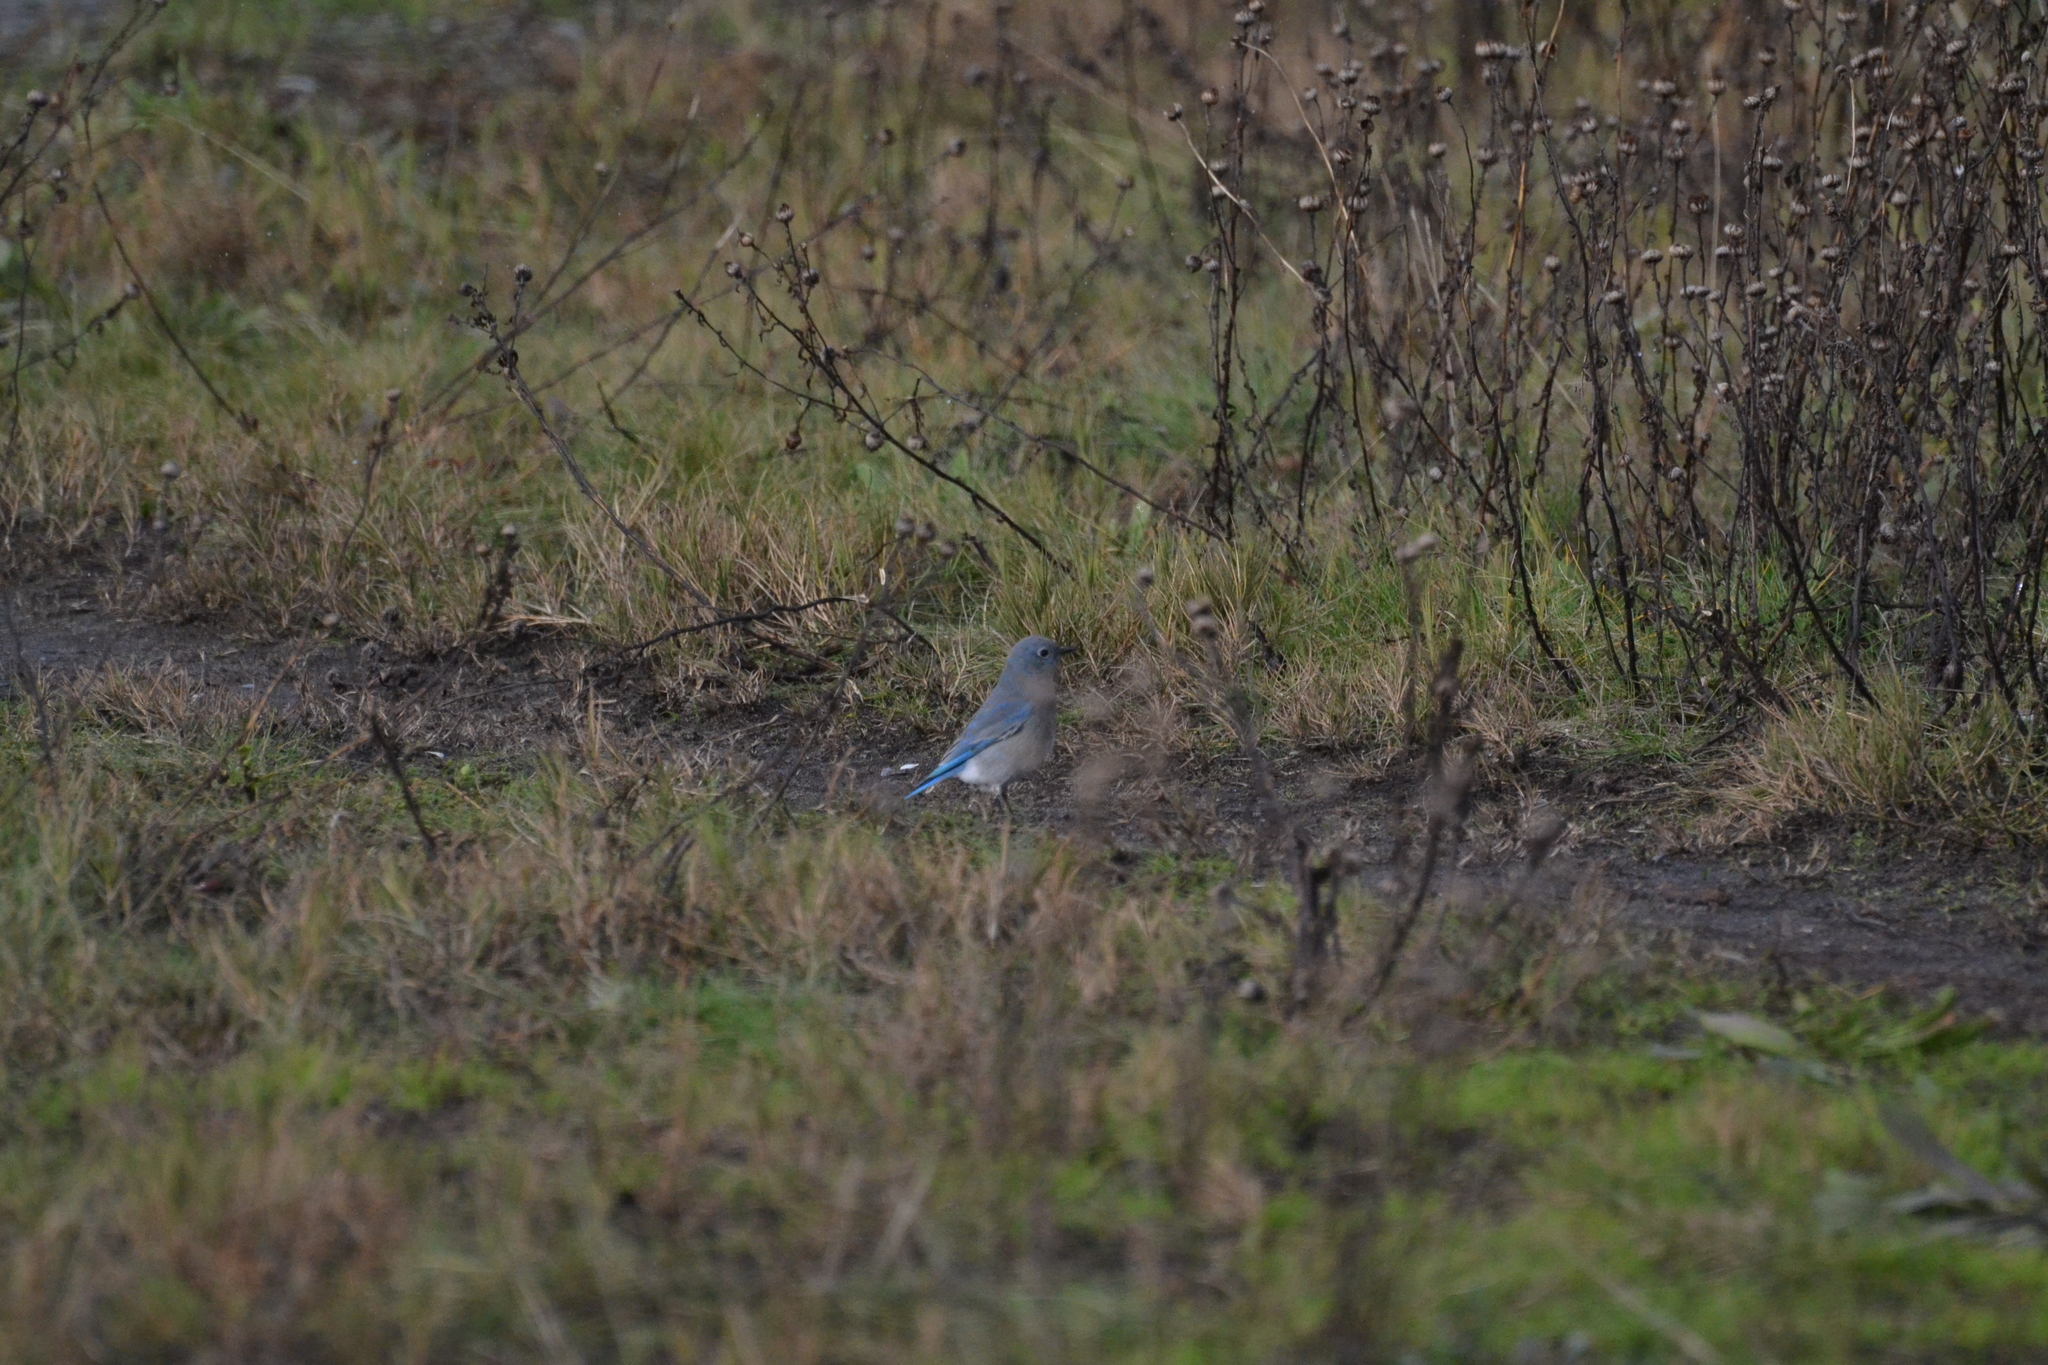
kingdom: Animalia
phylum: Chordata
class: Aves
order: Passeriformes
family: Turdidae
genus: Sialia
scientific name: Sialia currucoides
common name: Mountain bluebird
